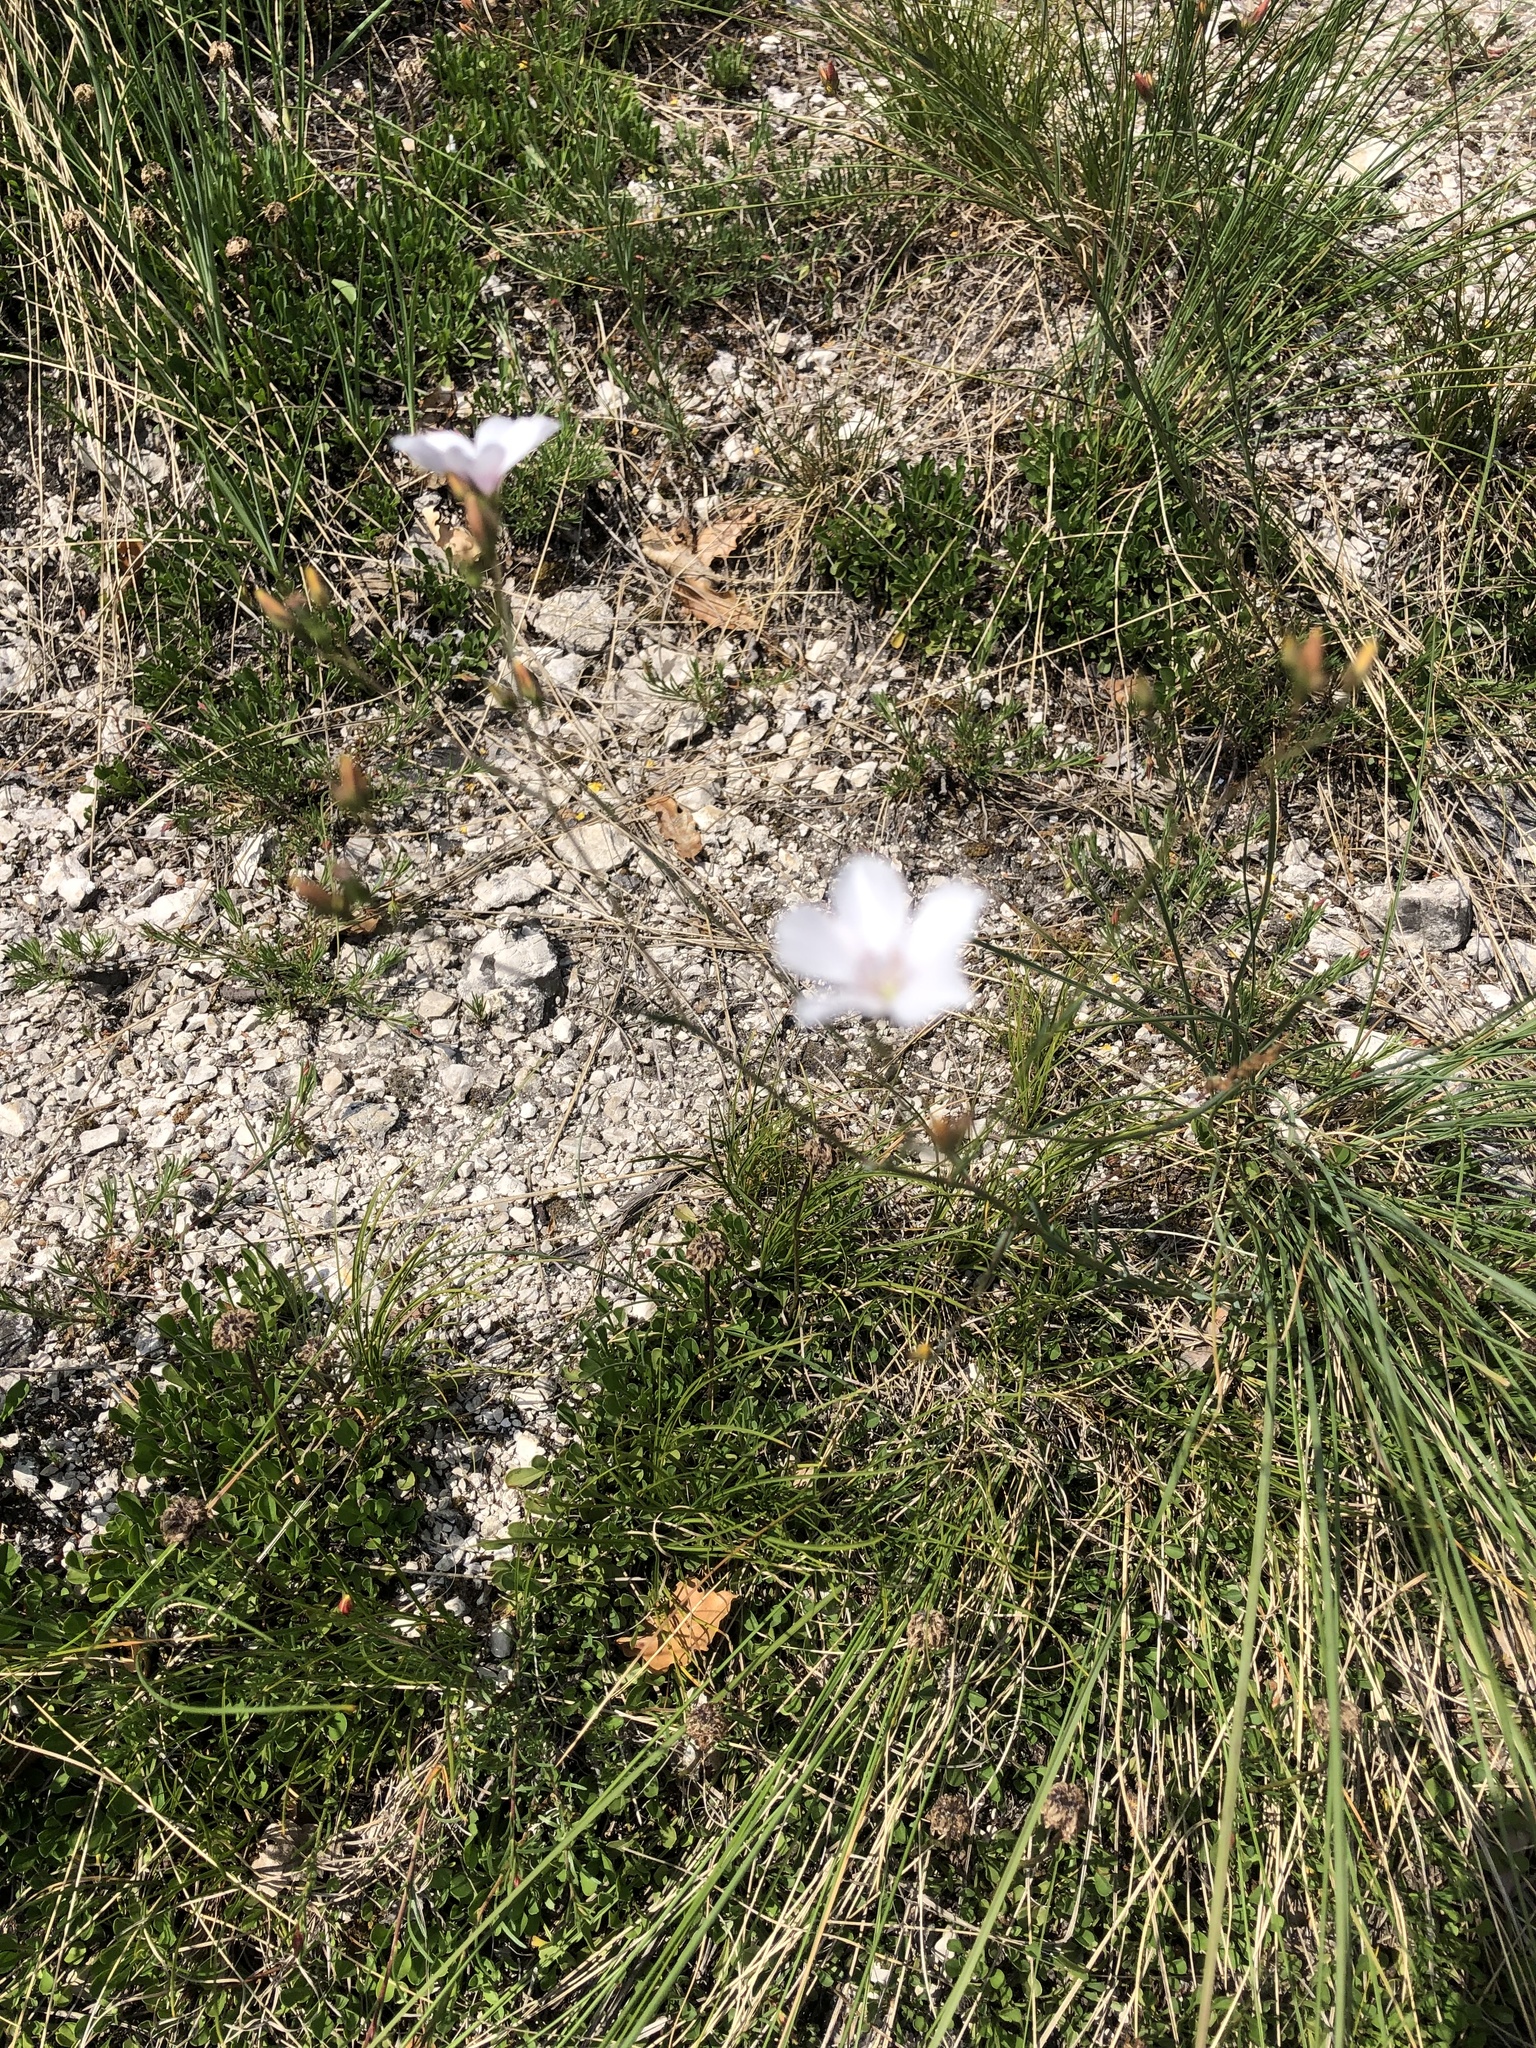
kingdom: Plantae
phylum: Tracheophyta
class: Magnoliopsida
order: Malpighiales
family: Linaceae
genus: Linum
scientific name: Linum tenuifolium
